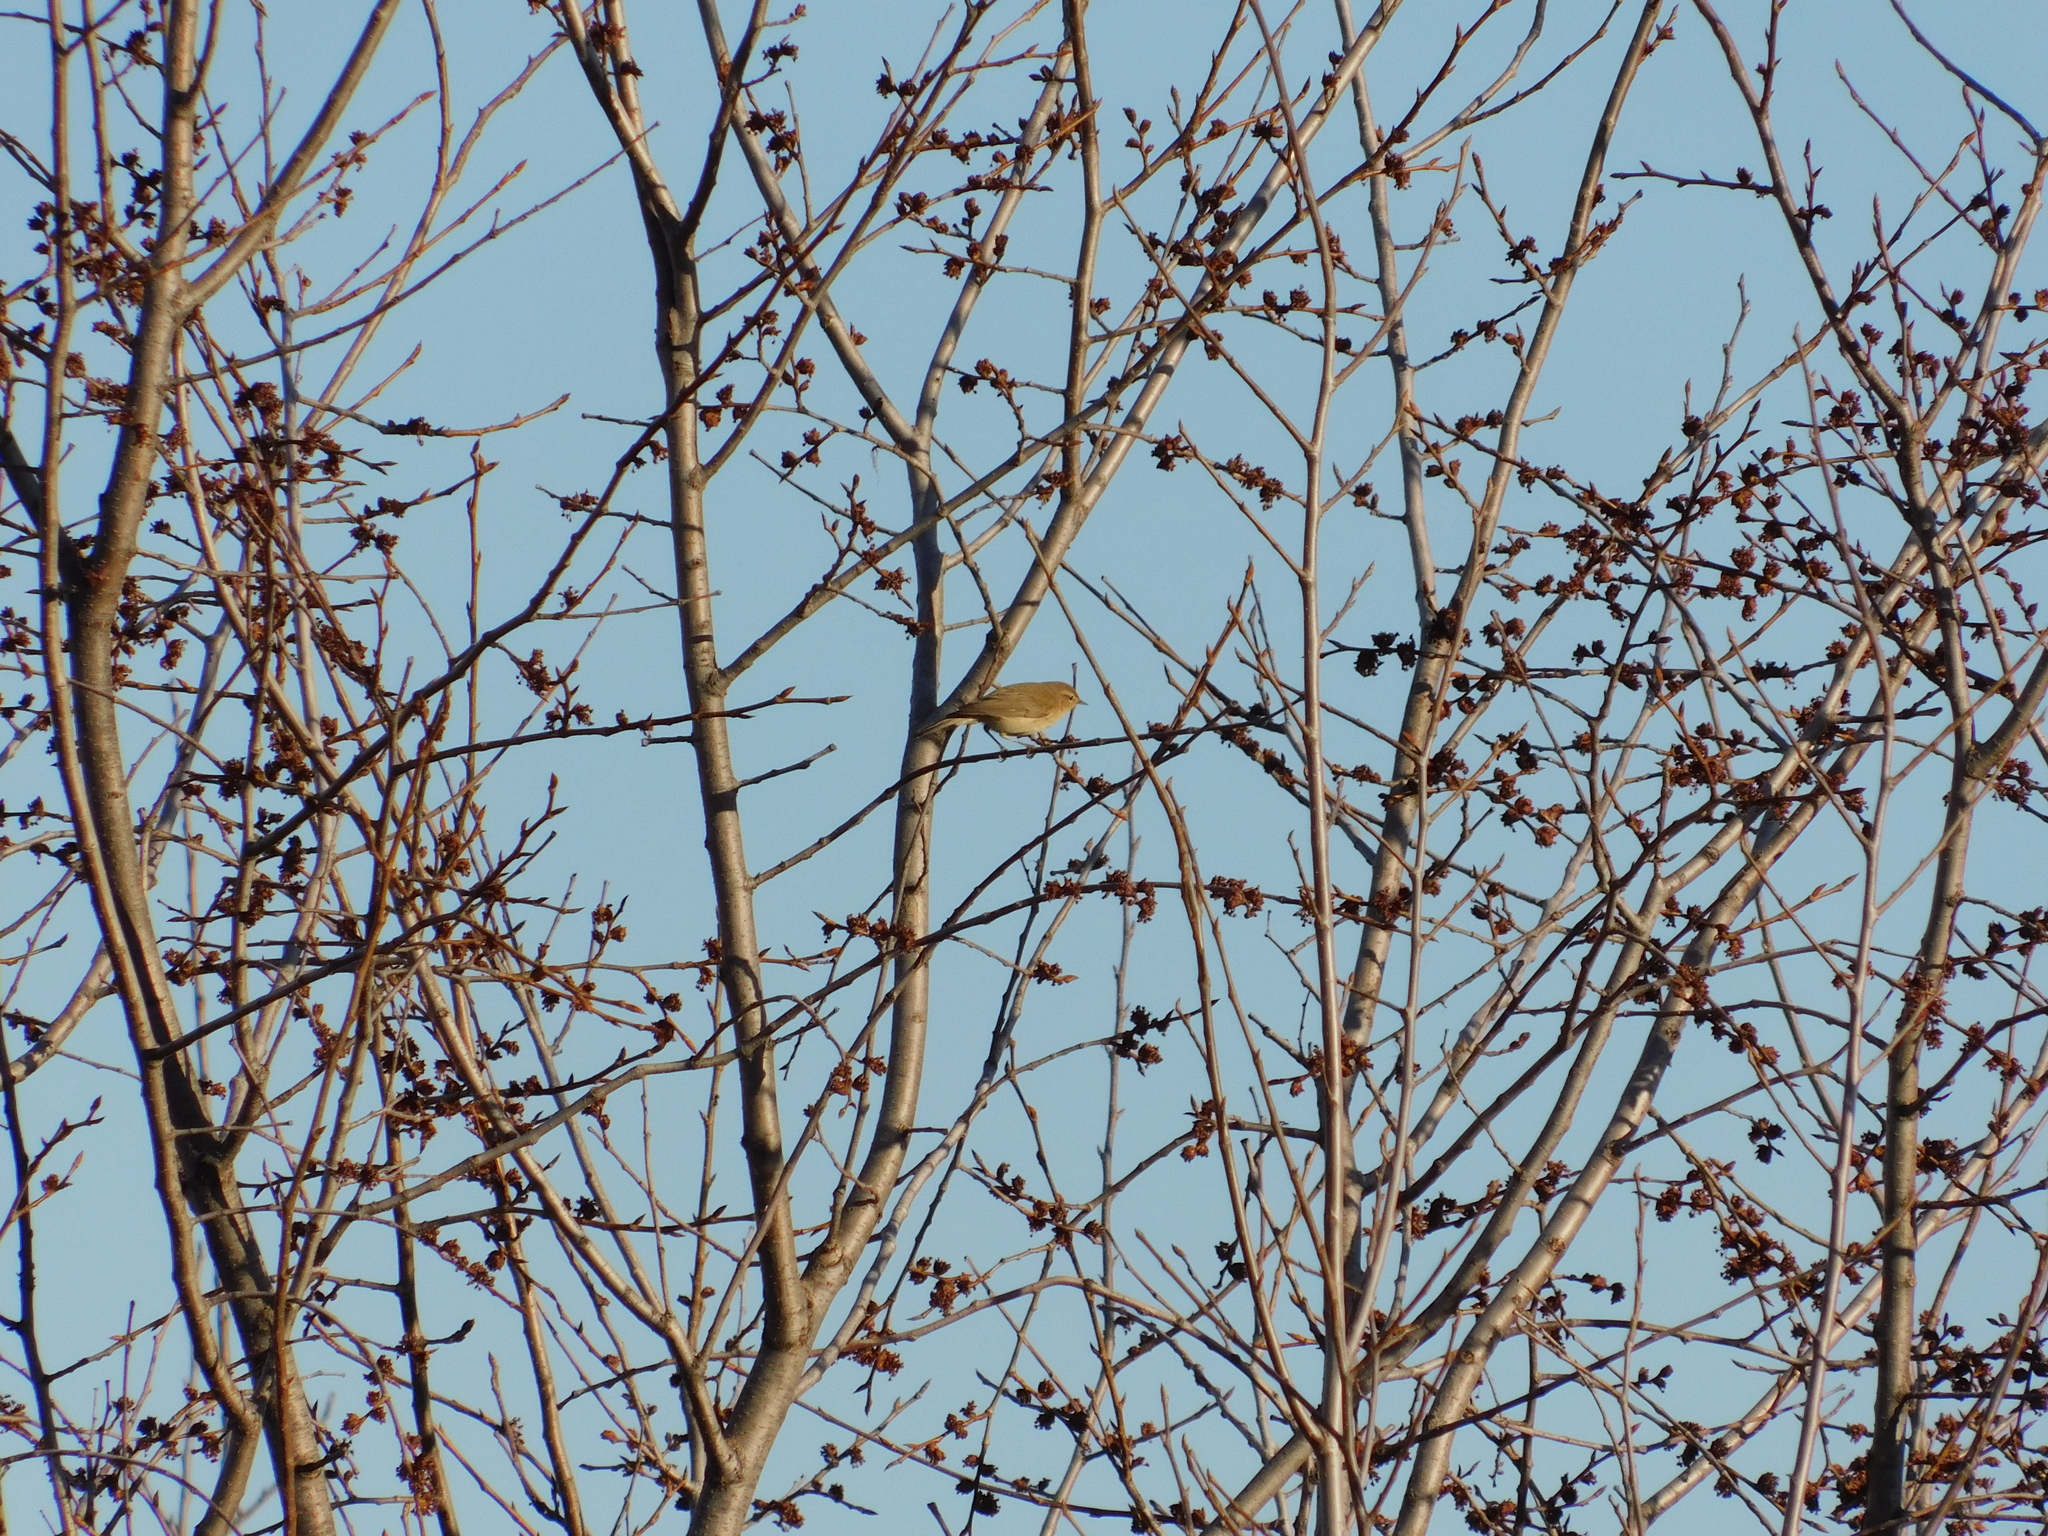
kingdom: Animalia
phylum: Chordata
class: Aves
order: Passeriformes
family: Phylloscopidae
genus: Phylloscopus
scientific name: Phylloscopus collybita
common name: Common chiffchaff
